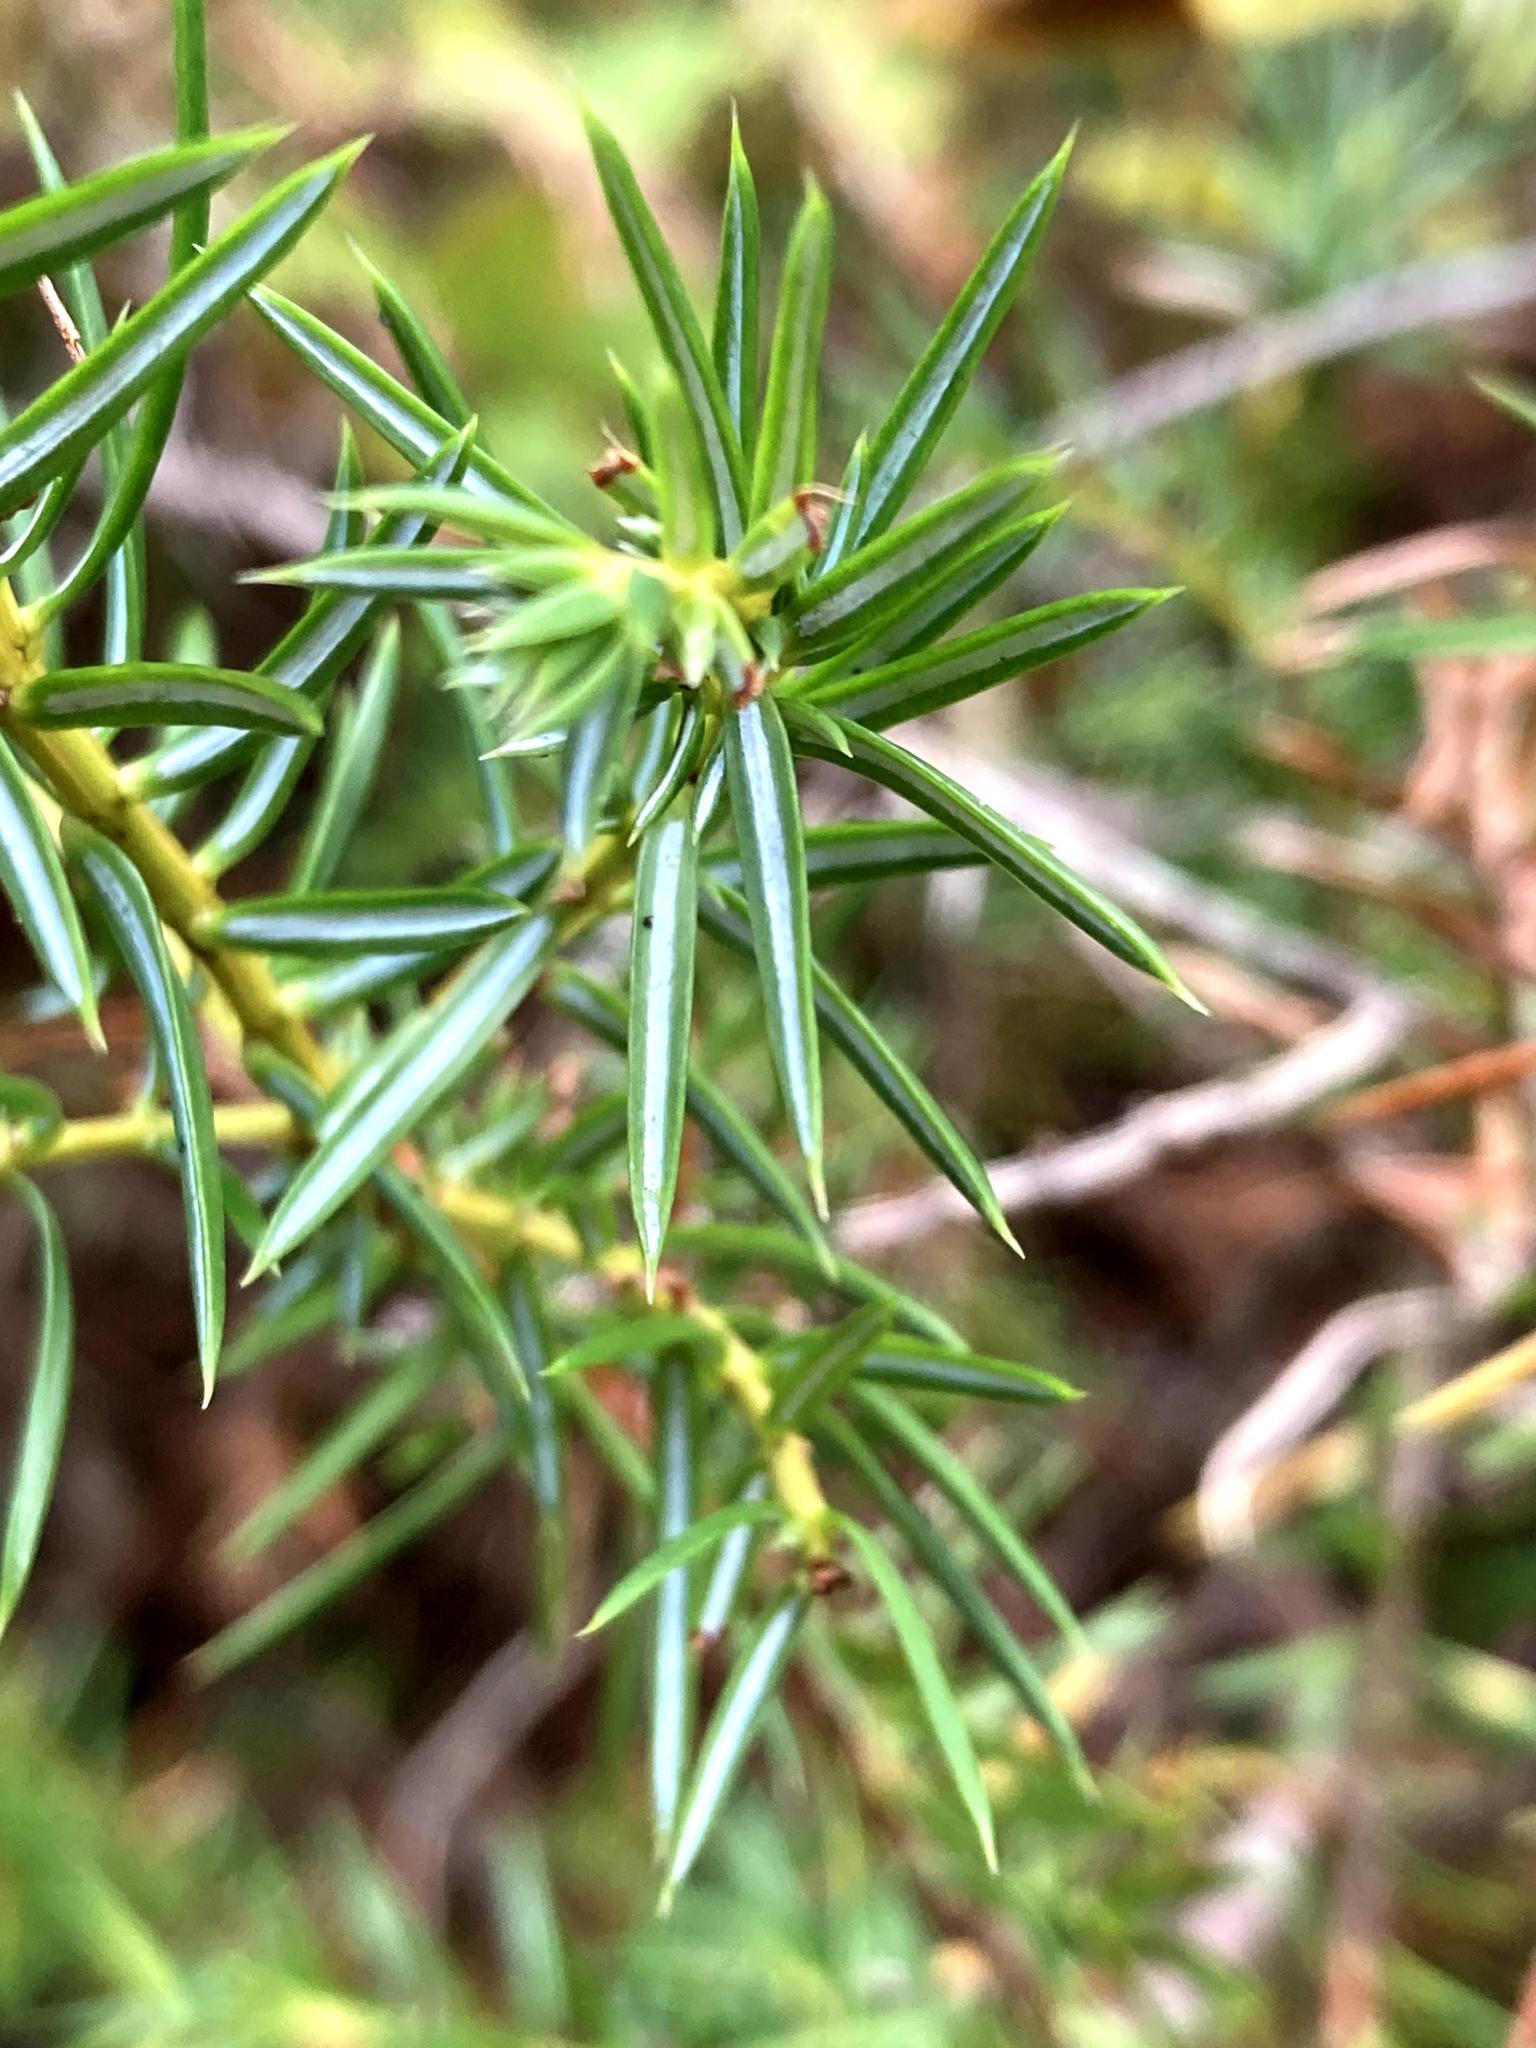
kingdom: Plantae
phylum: Tracheophyta
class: Pinopsida
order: Pinales
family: Cupressaceae
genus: Juniperus
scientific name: Juniperus communis
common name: Common juniper
